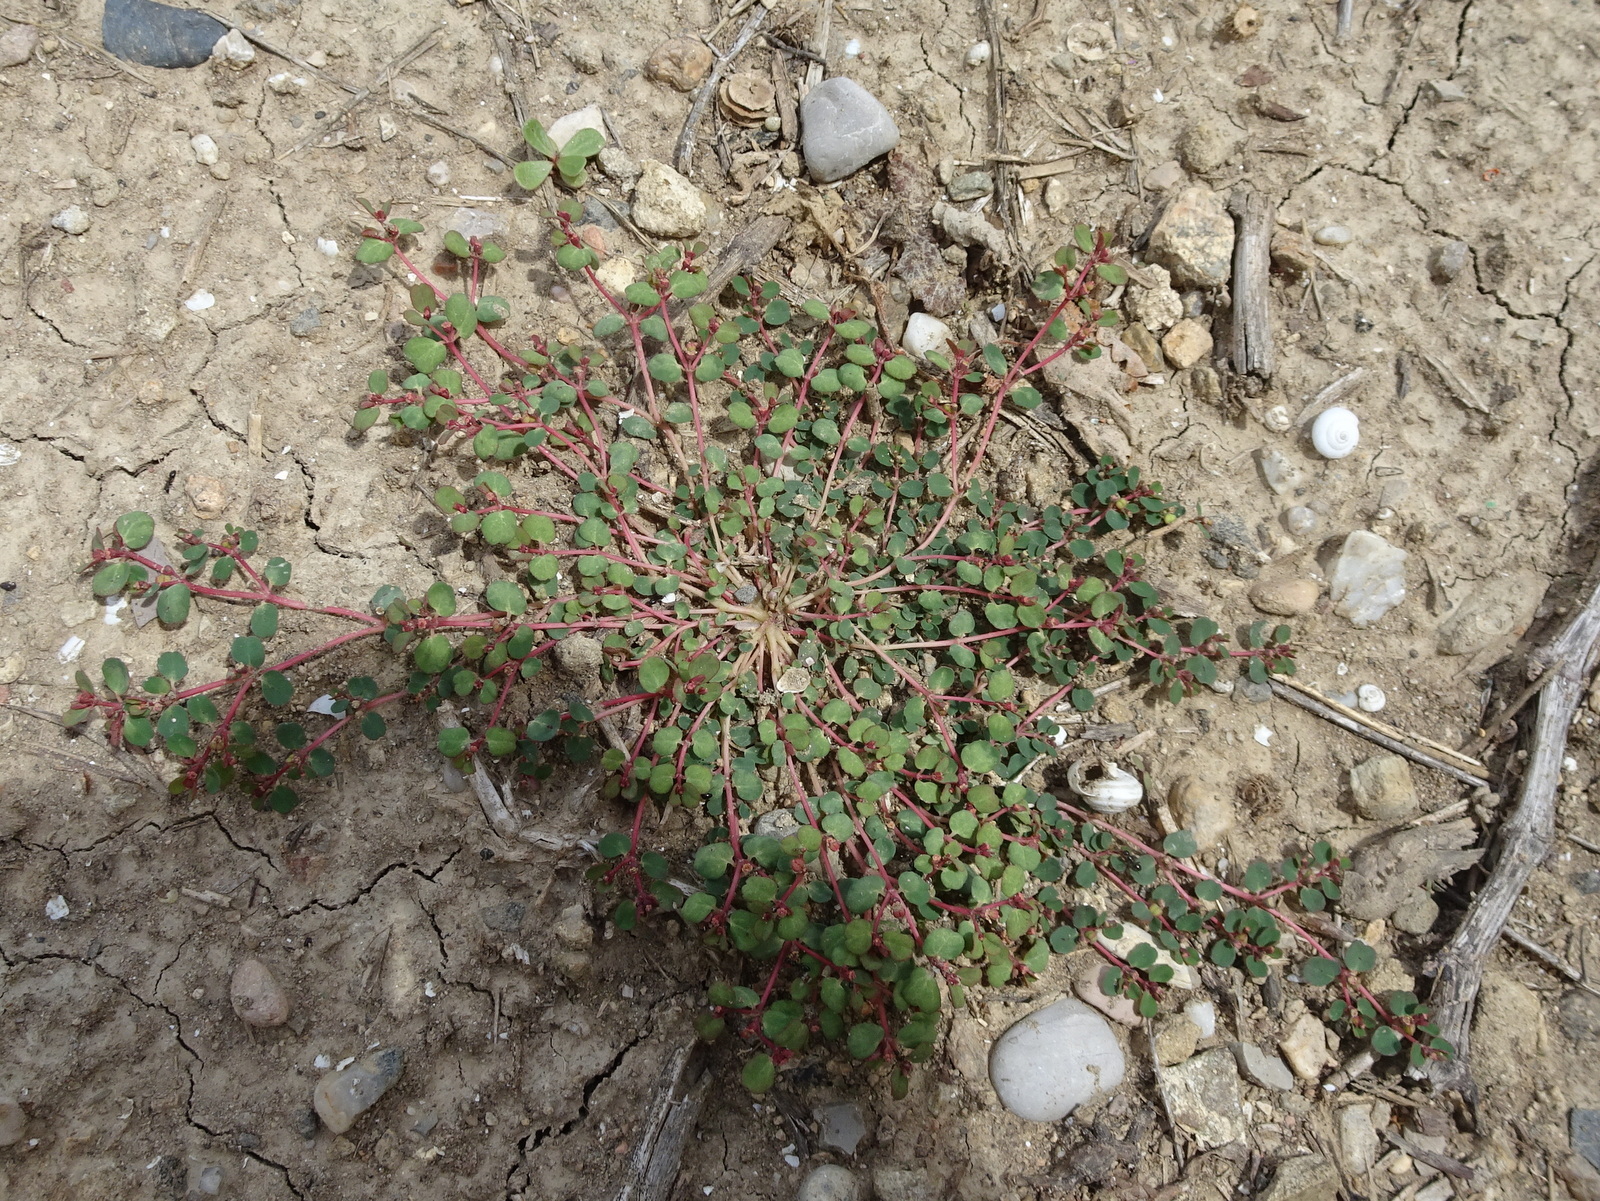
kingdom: Plantae
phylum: Tracheophyta
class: Magnoliopsida
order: Malpighiales
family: Euphorbiaceae
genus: Euphorbia
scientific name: Euphorbia chamaesyce
